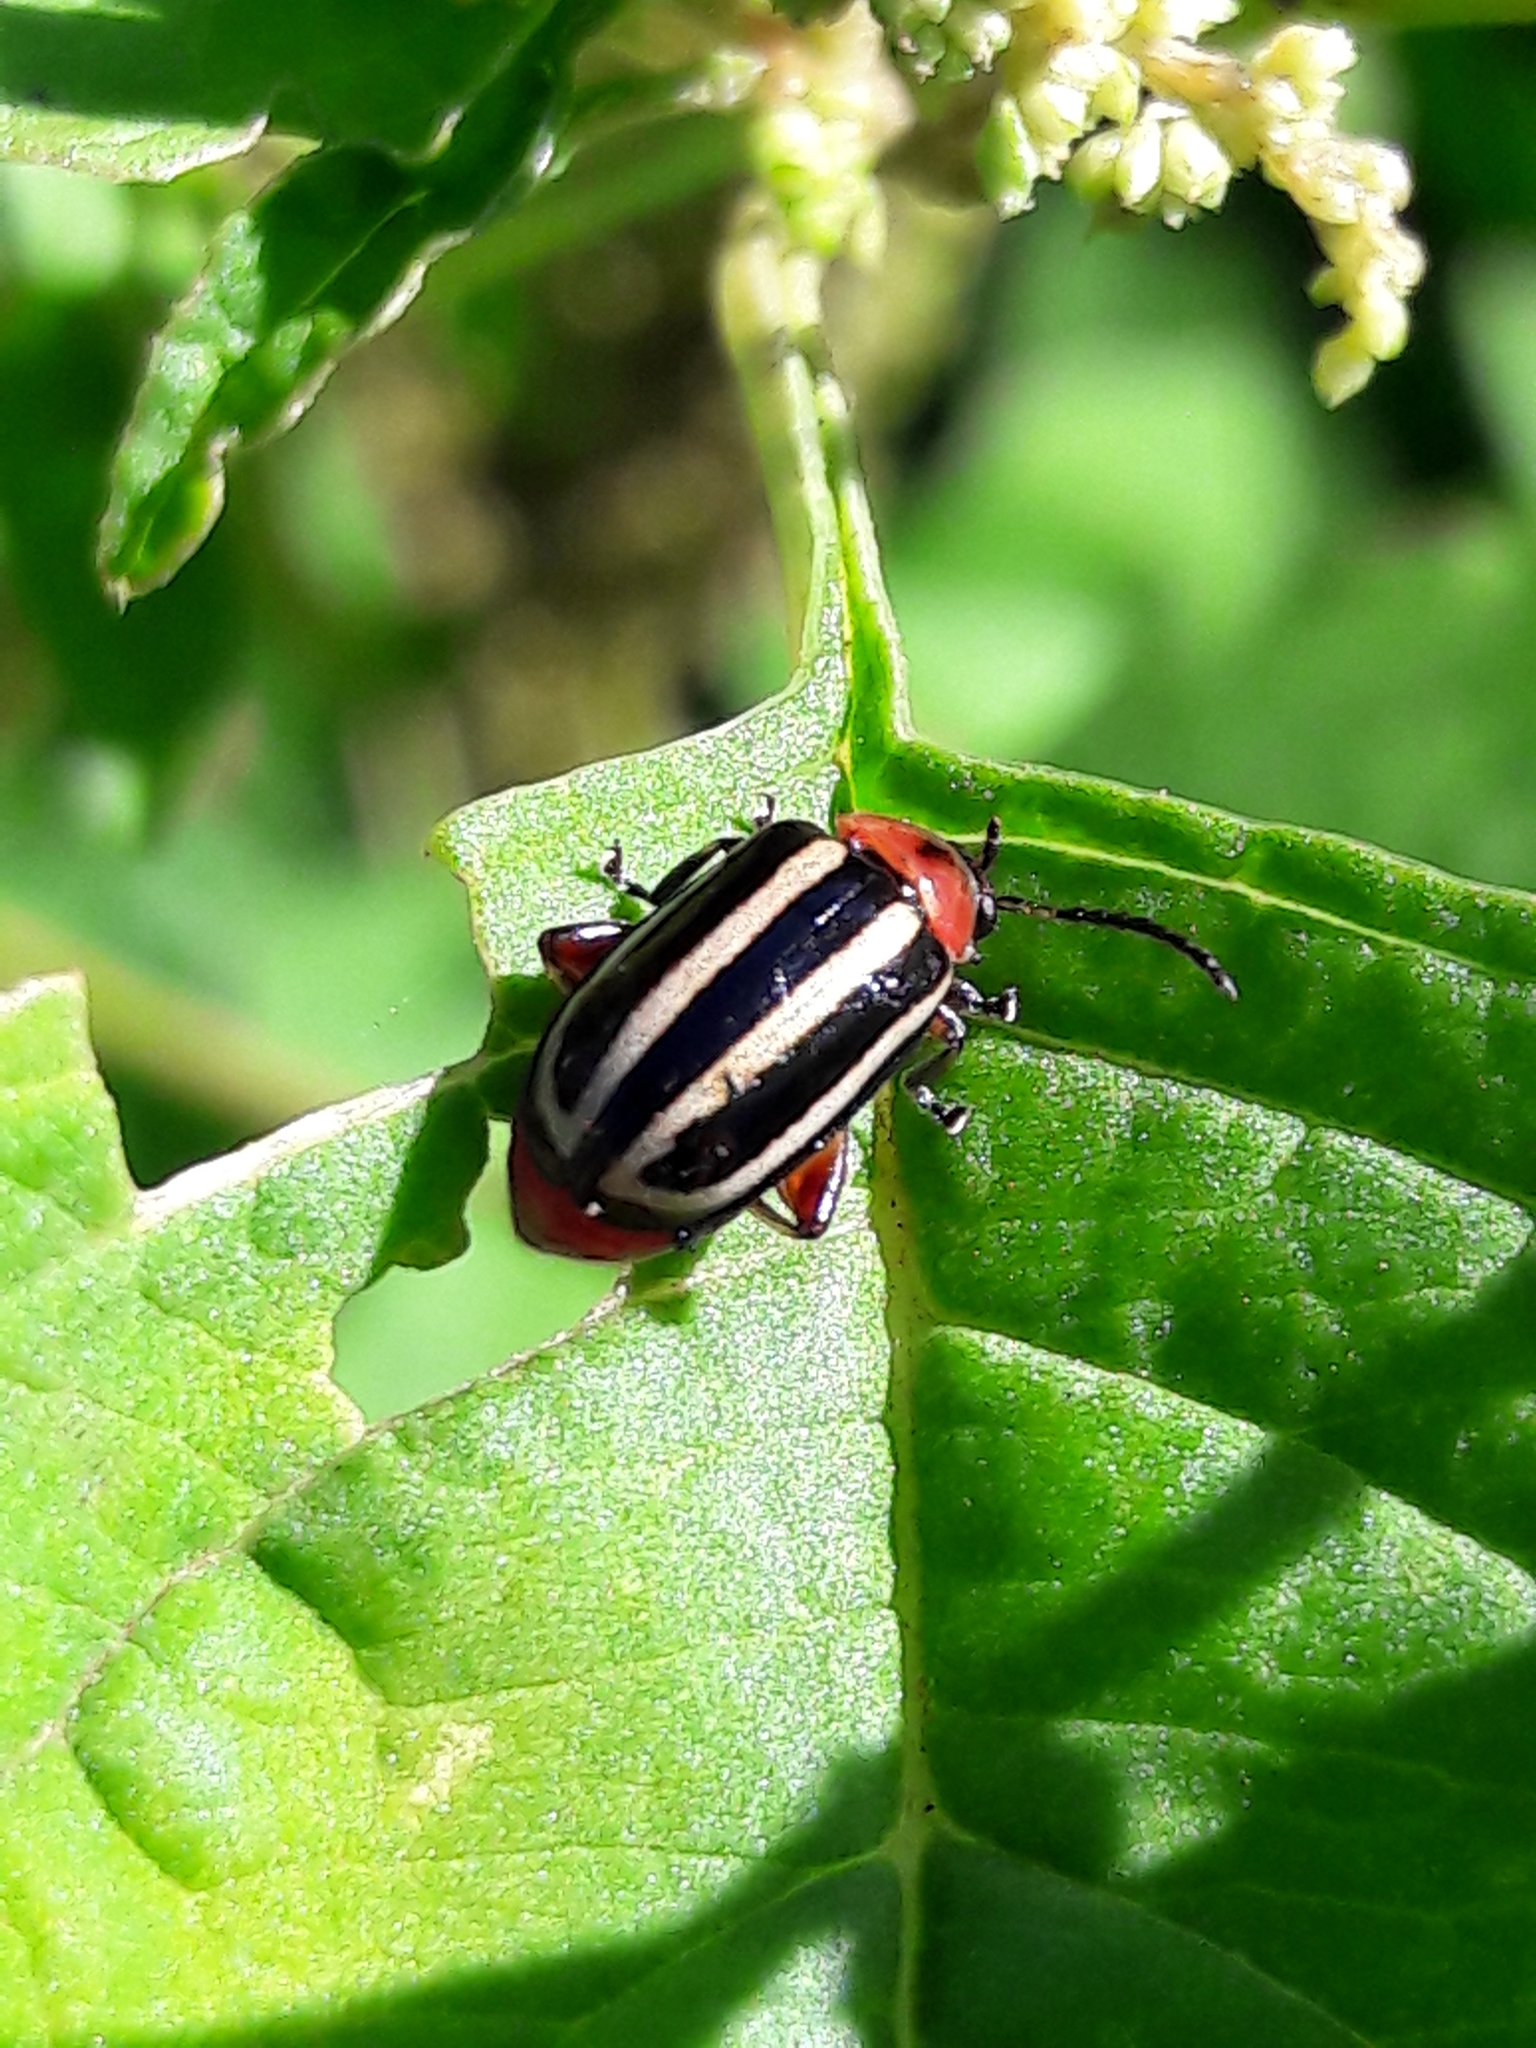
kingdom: Animalia
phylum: Arthropoda
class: Insecta
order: Coleoptera
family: Chrysomelidae
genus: Disonycha
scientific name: Disonycha glabrata
